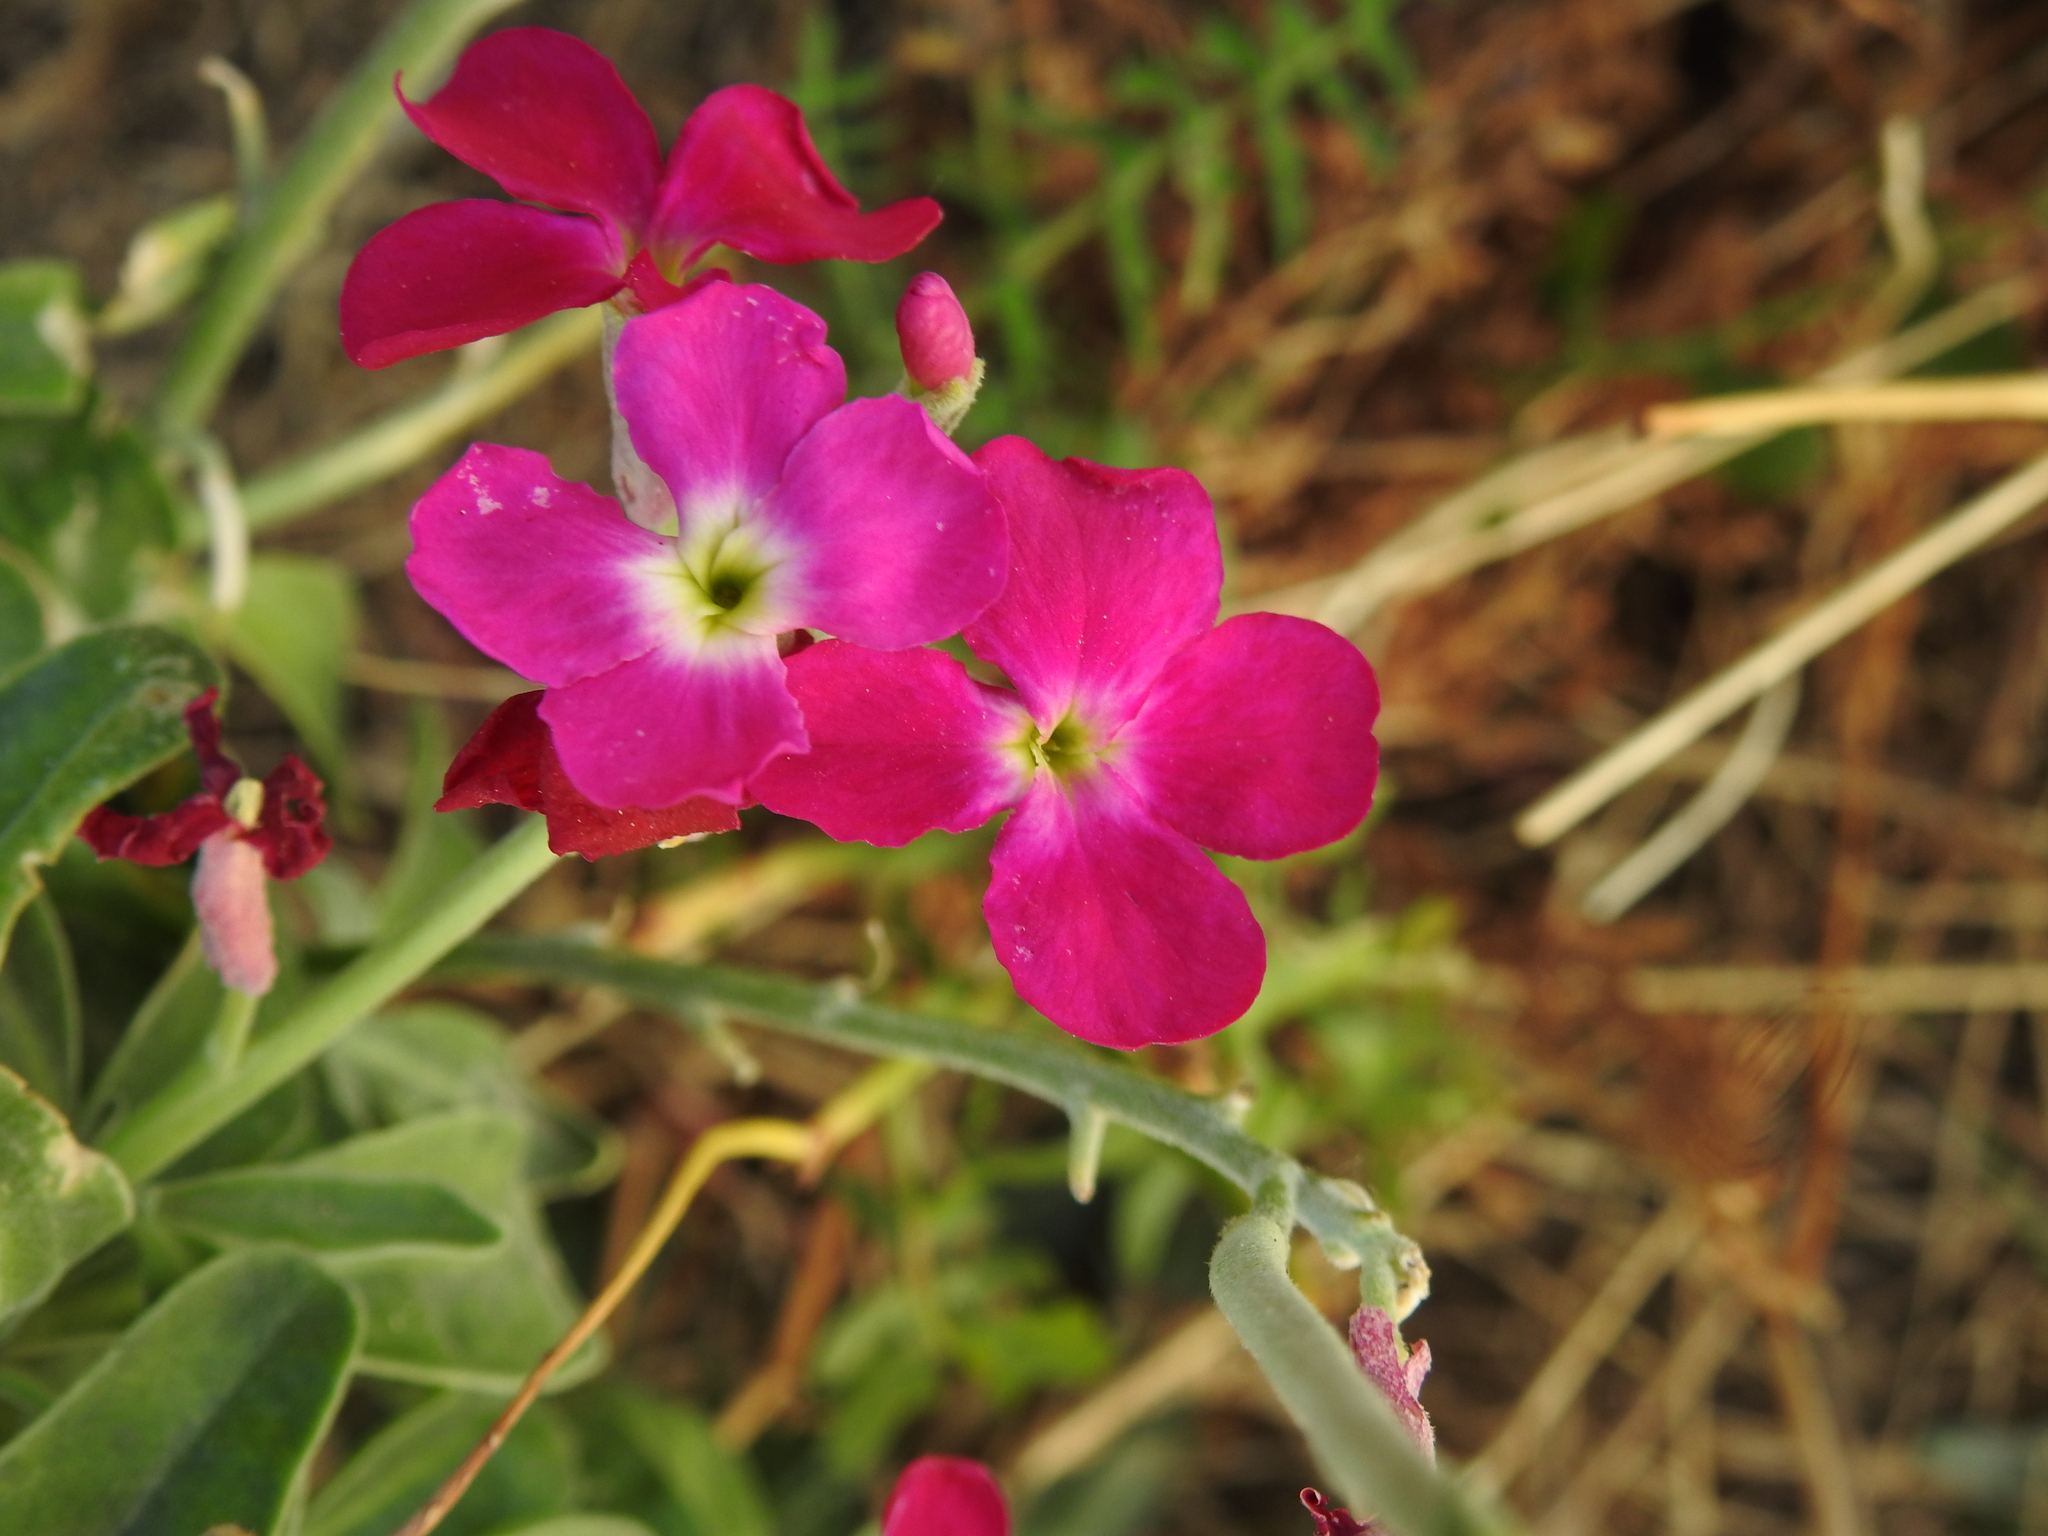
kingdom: Plantae
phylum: Tracheophyta
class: Magnoliopsida
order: Brassicales
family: Brassicaceae
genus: Matthiola
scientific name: Matthiola incana
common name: Hoary stock
